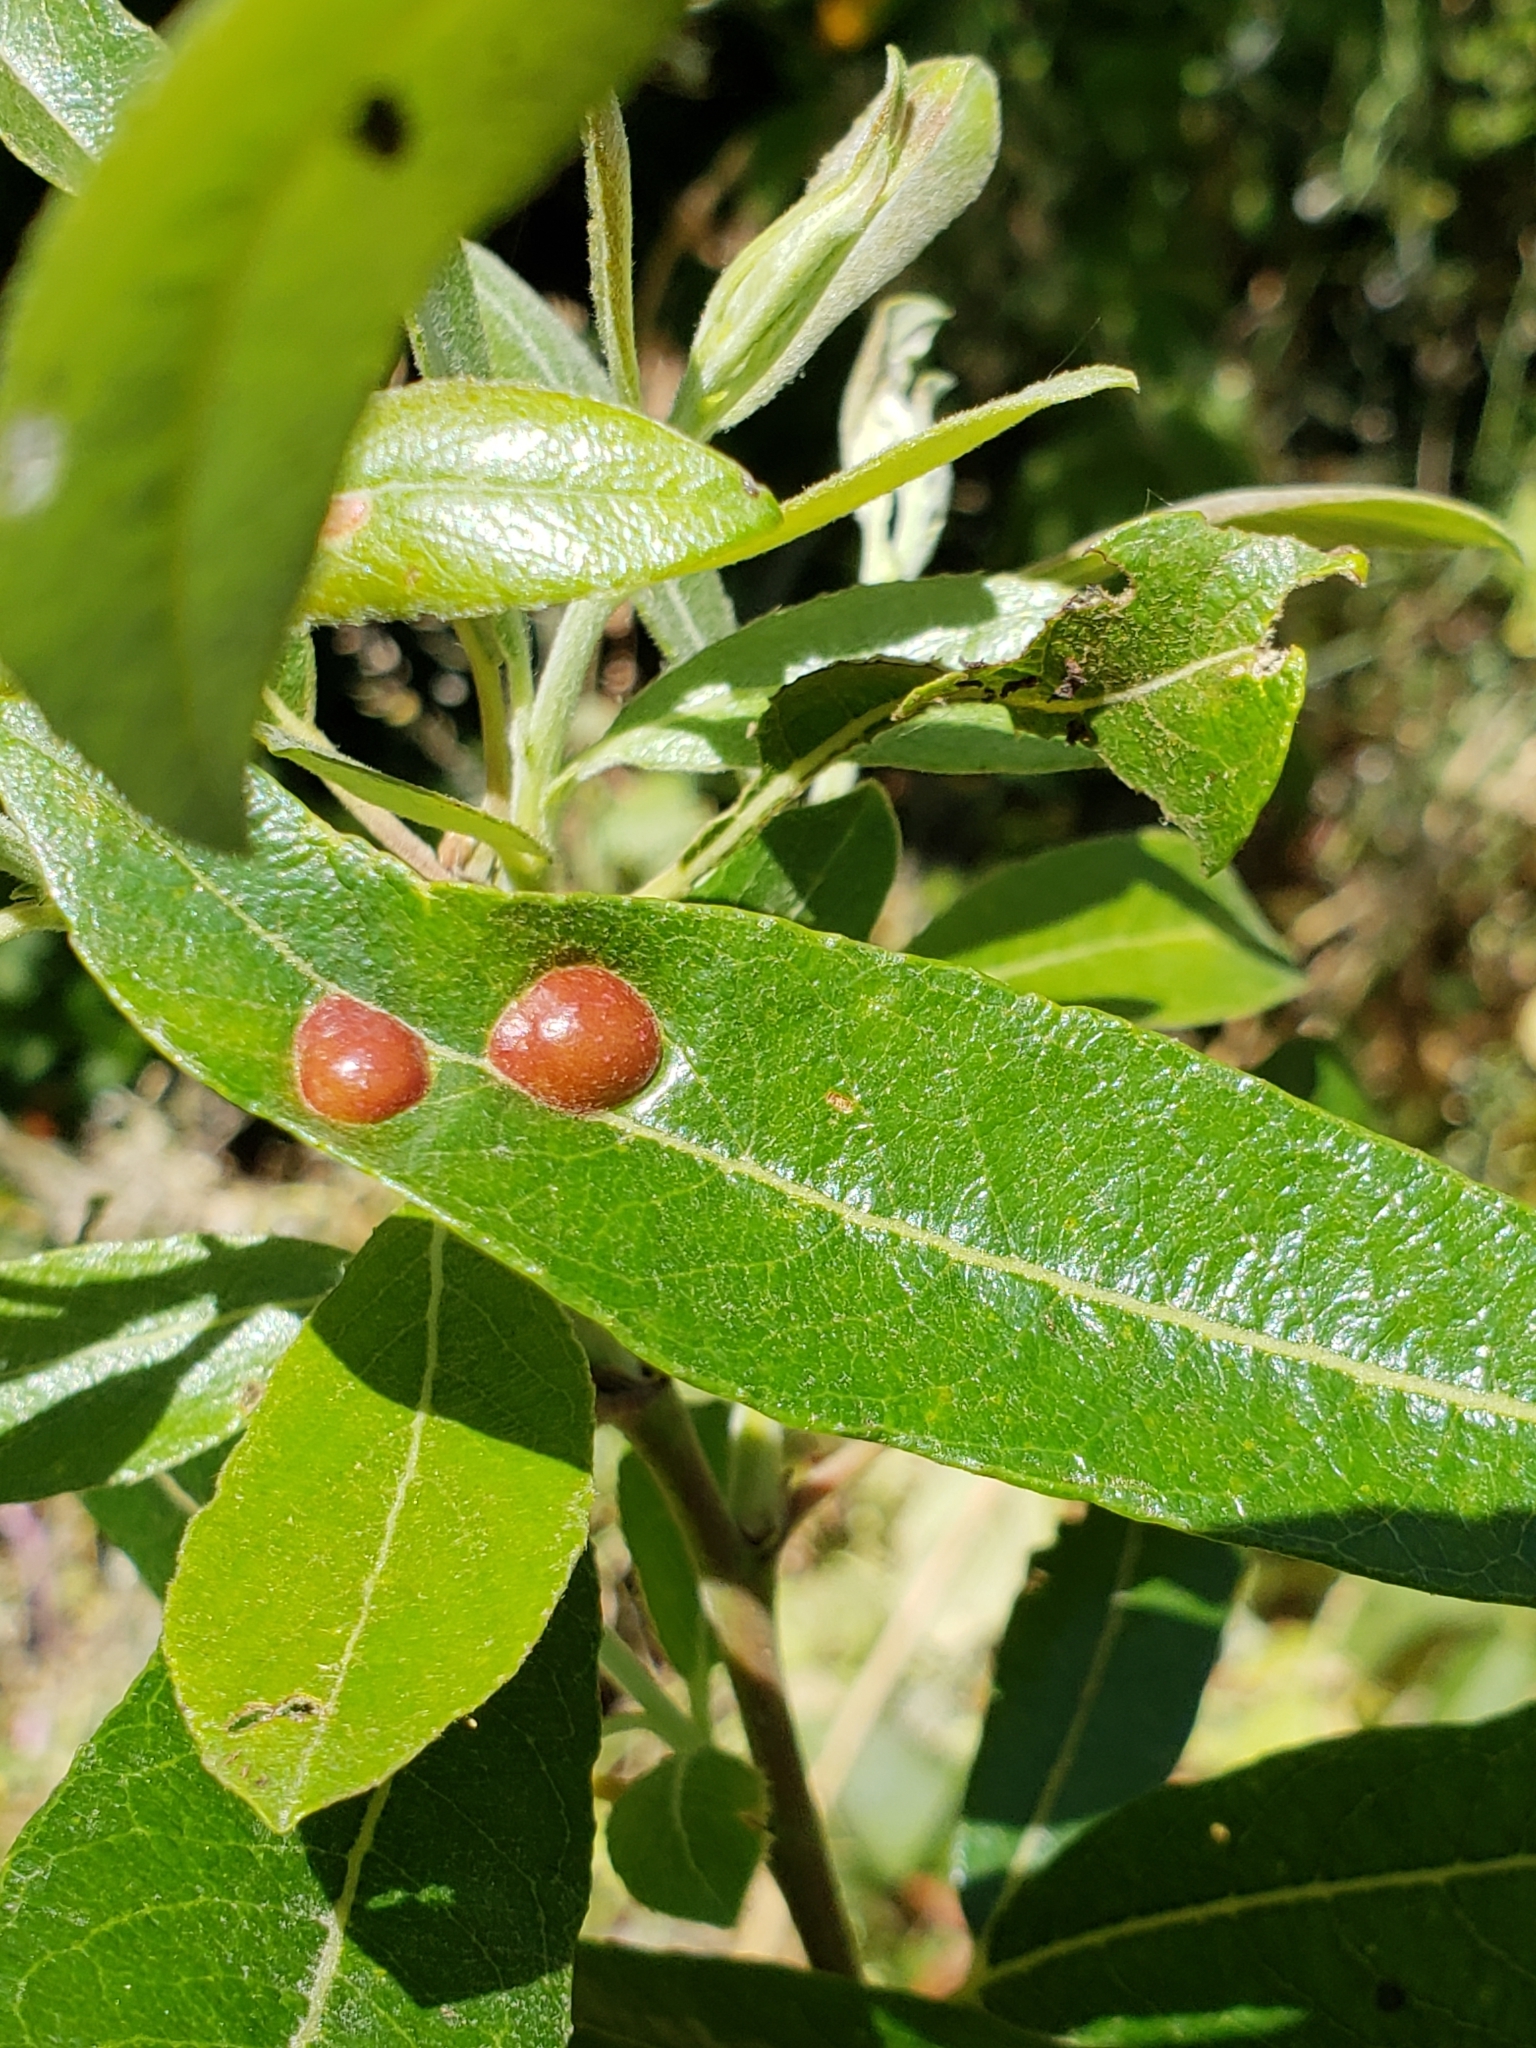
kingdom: Animalia
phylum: Arthropoda
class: Insecta
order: Hymenoptera
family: Tenthredinidae
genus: Euura
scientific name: Euura
